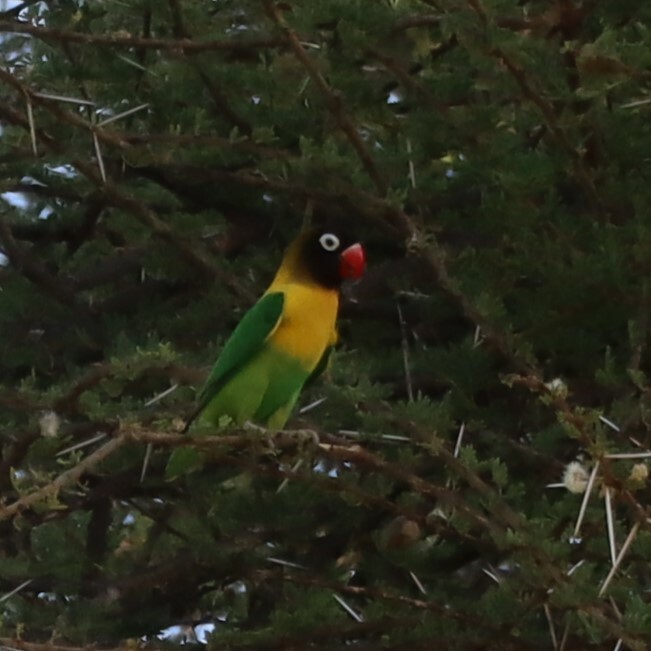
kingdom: Animalia
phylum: Chordata
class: Aves
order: Psittaciformes
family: Psittacidae
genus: Agapornis
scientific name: Agapornis personatus
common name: Yellow-collared lovebird
